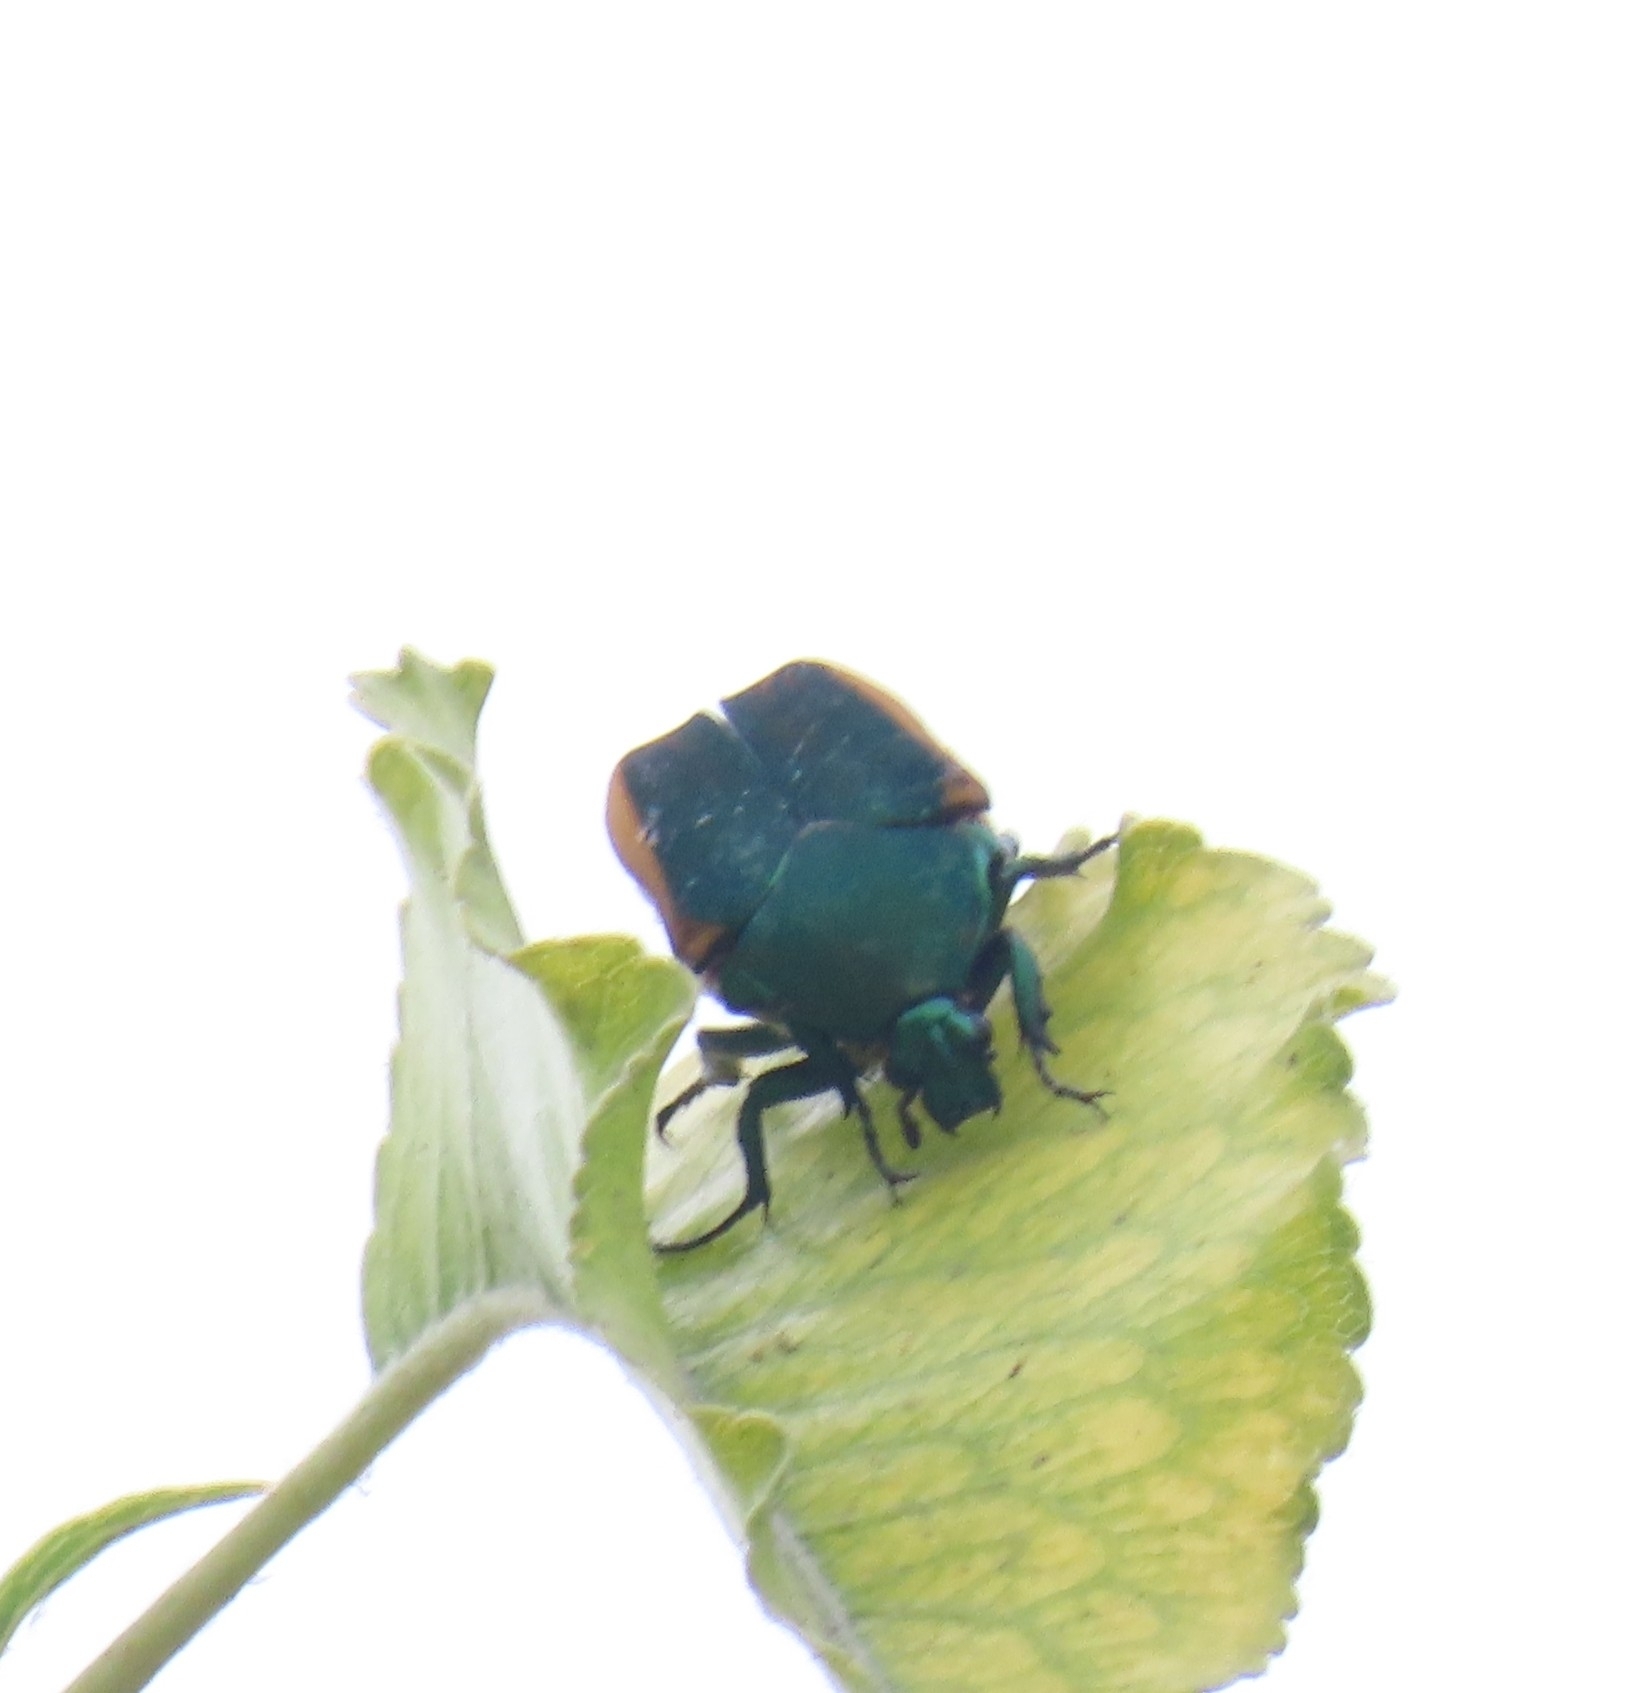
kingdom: Animalia
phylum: Arthropoda
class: Insecta
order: Coleoptera
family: Scarabaeidae
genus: Cotinis
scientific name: Cotinis mutabilis
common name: Figeater beetle
